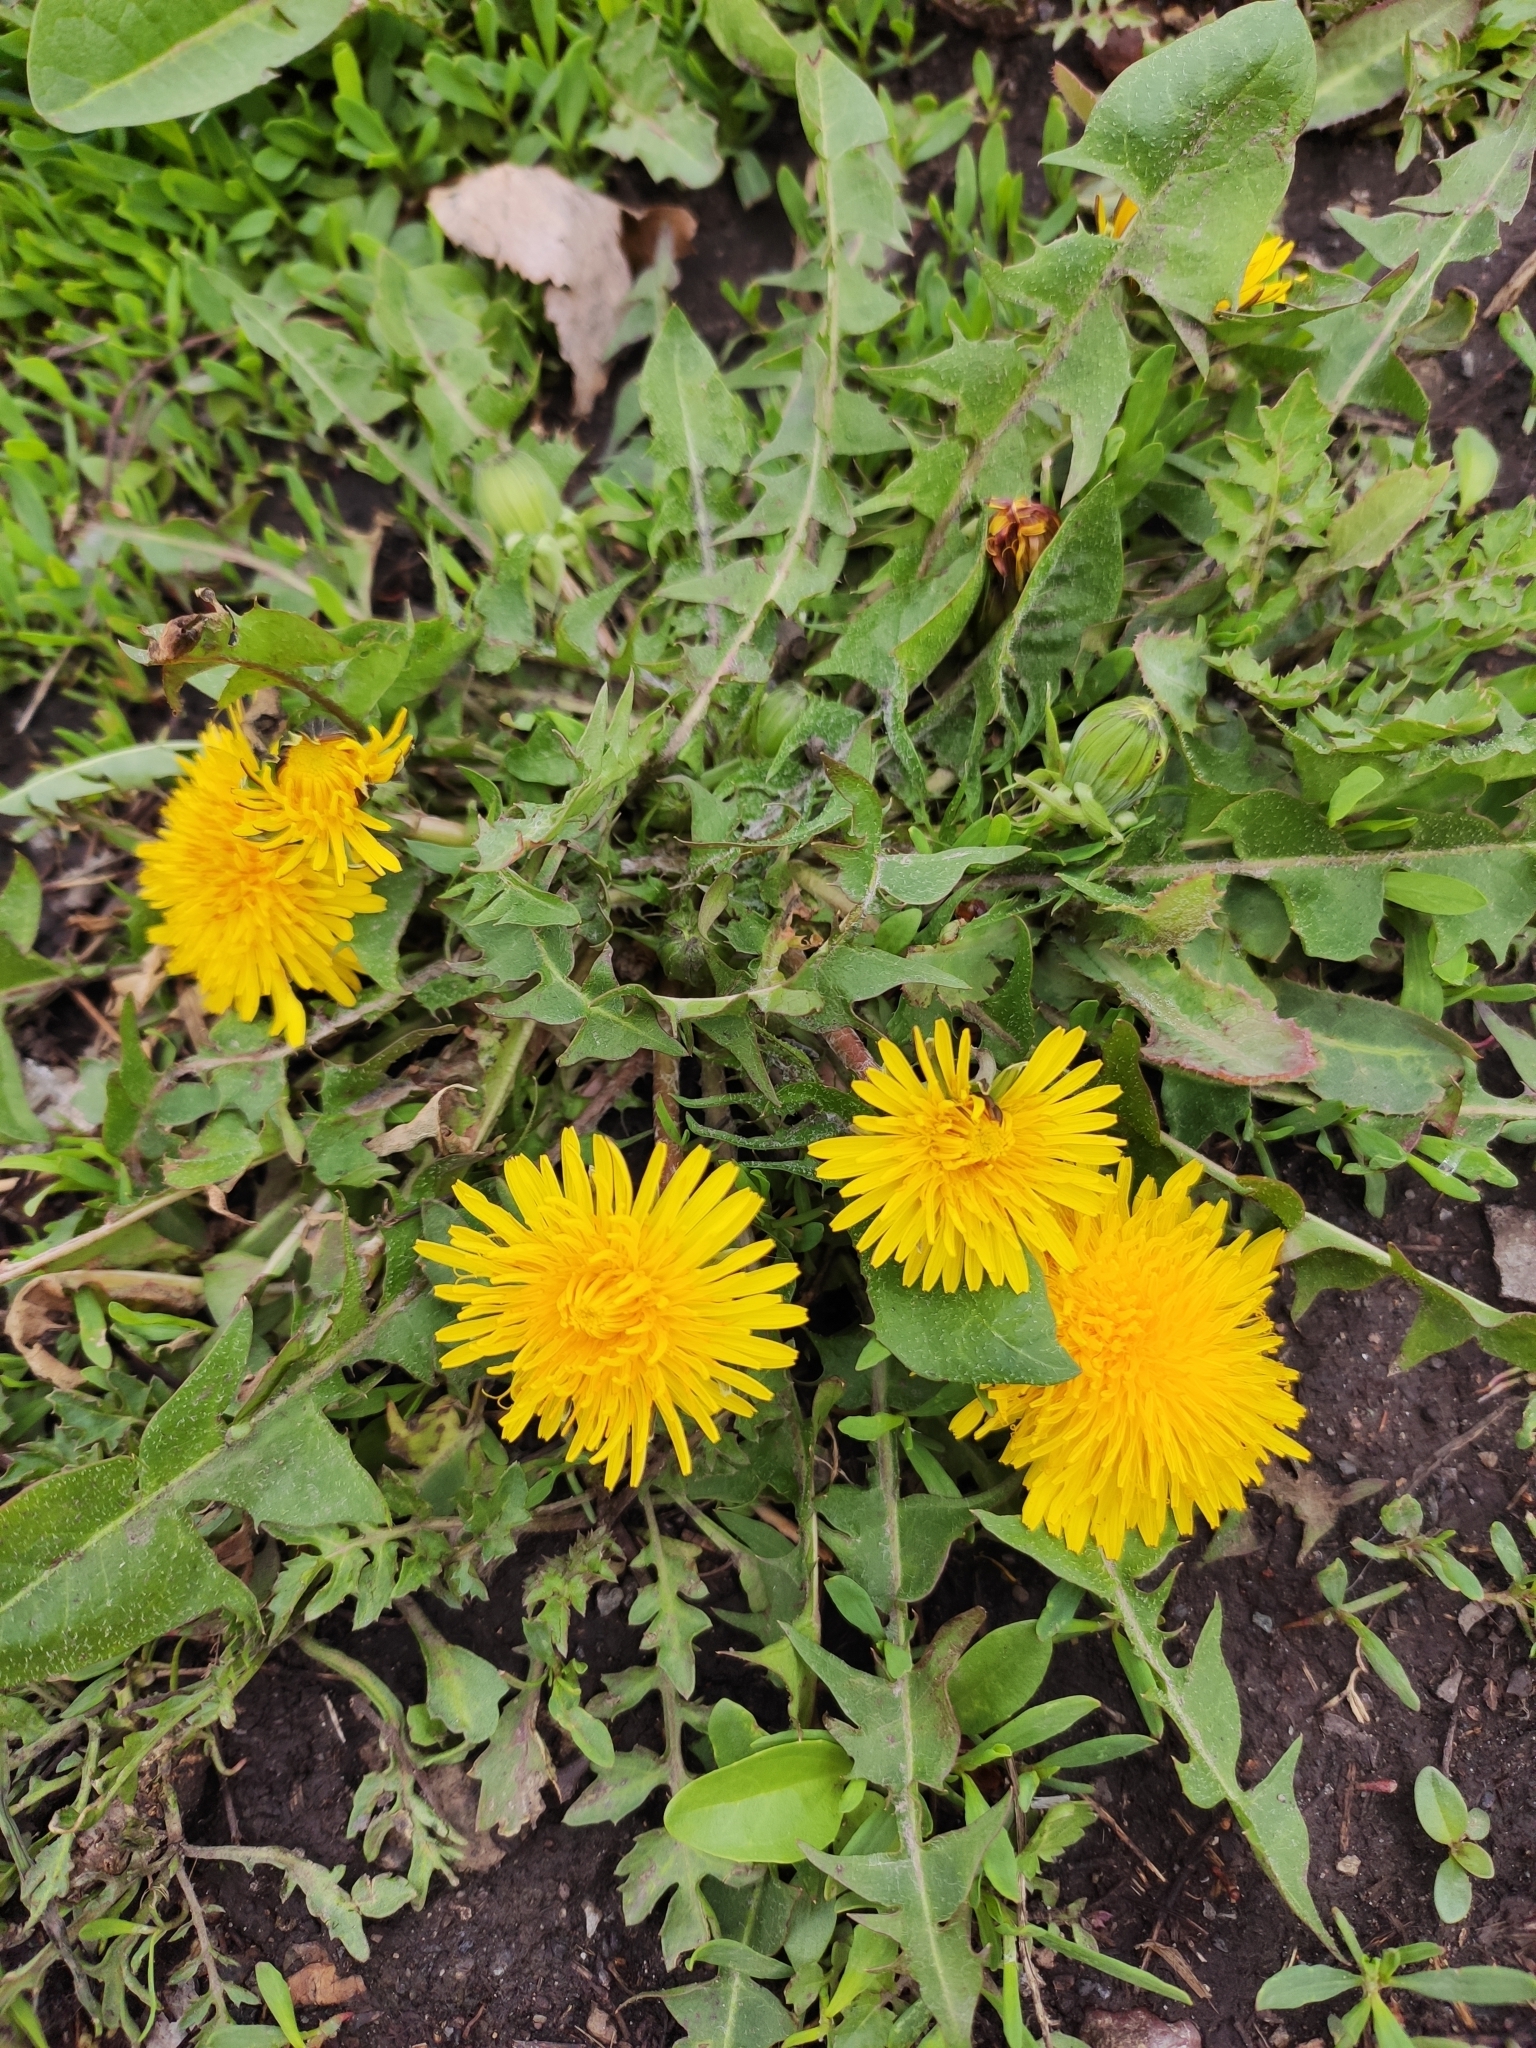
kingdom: Plantae
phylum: Tracheophyta
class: Magnoliopsida
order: Asterales
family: Asteraceae
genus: Taraxacum
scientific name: Taraxacum officinale
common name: Common dandelion
